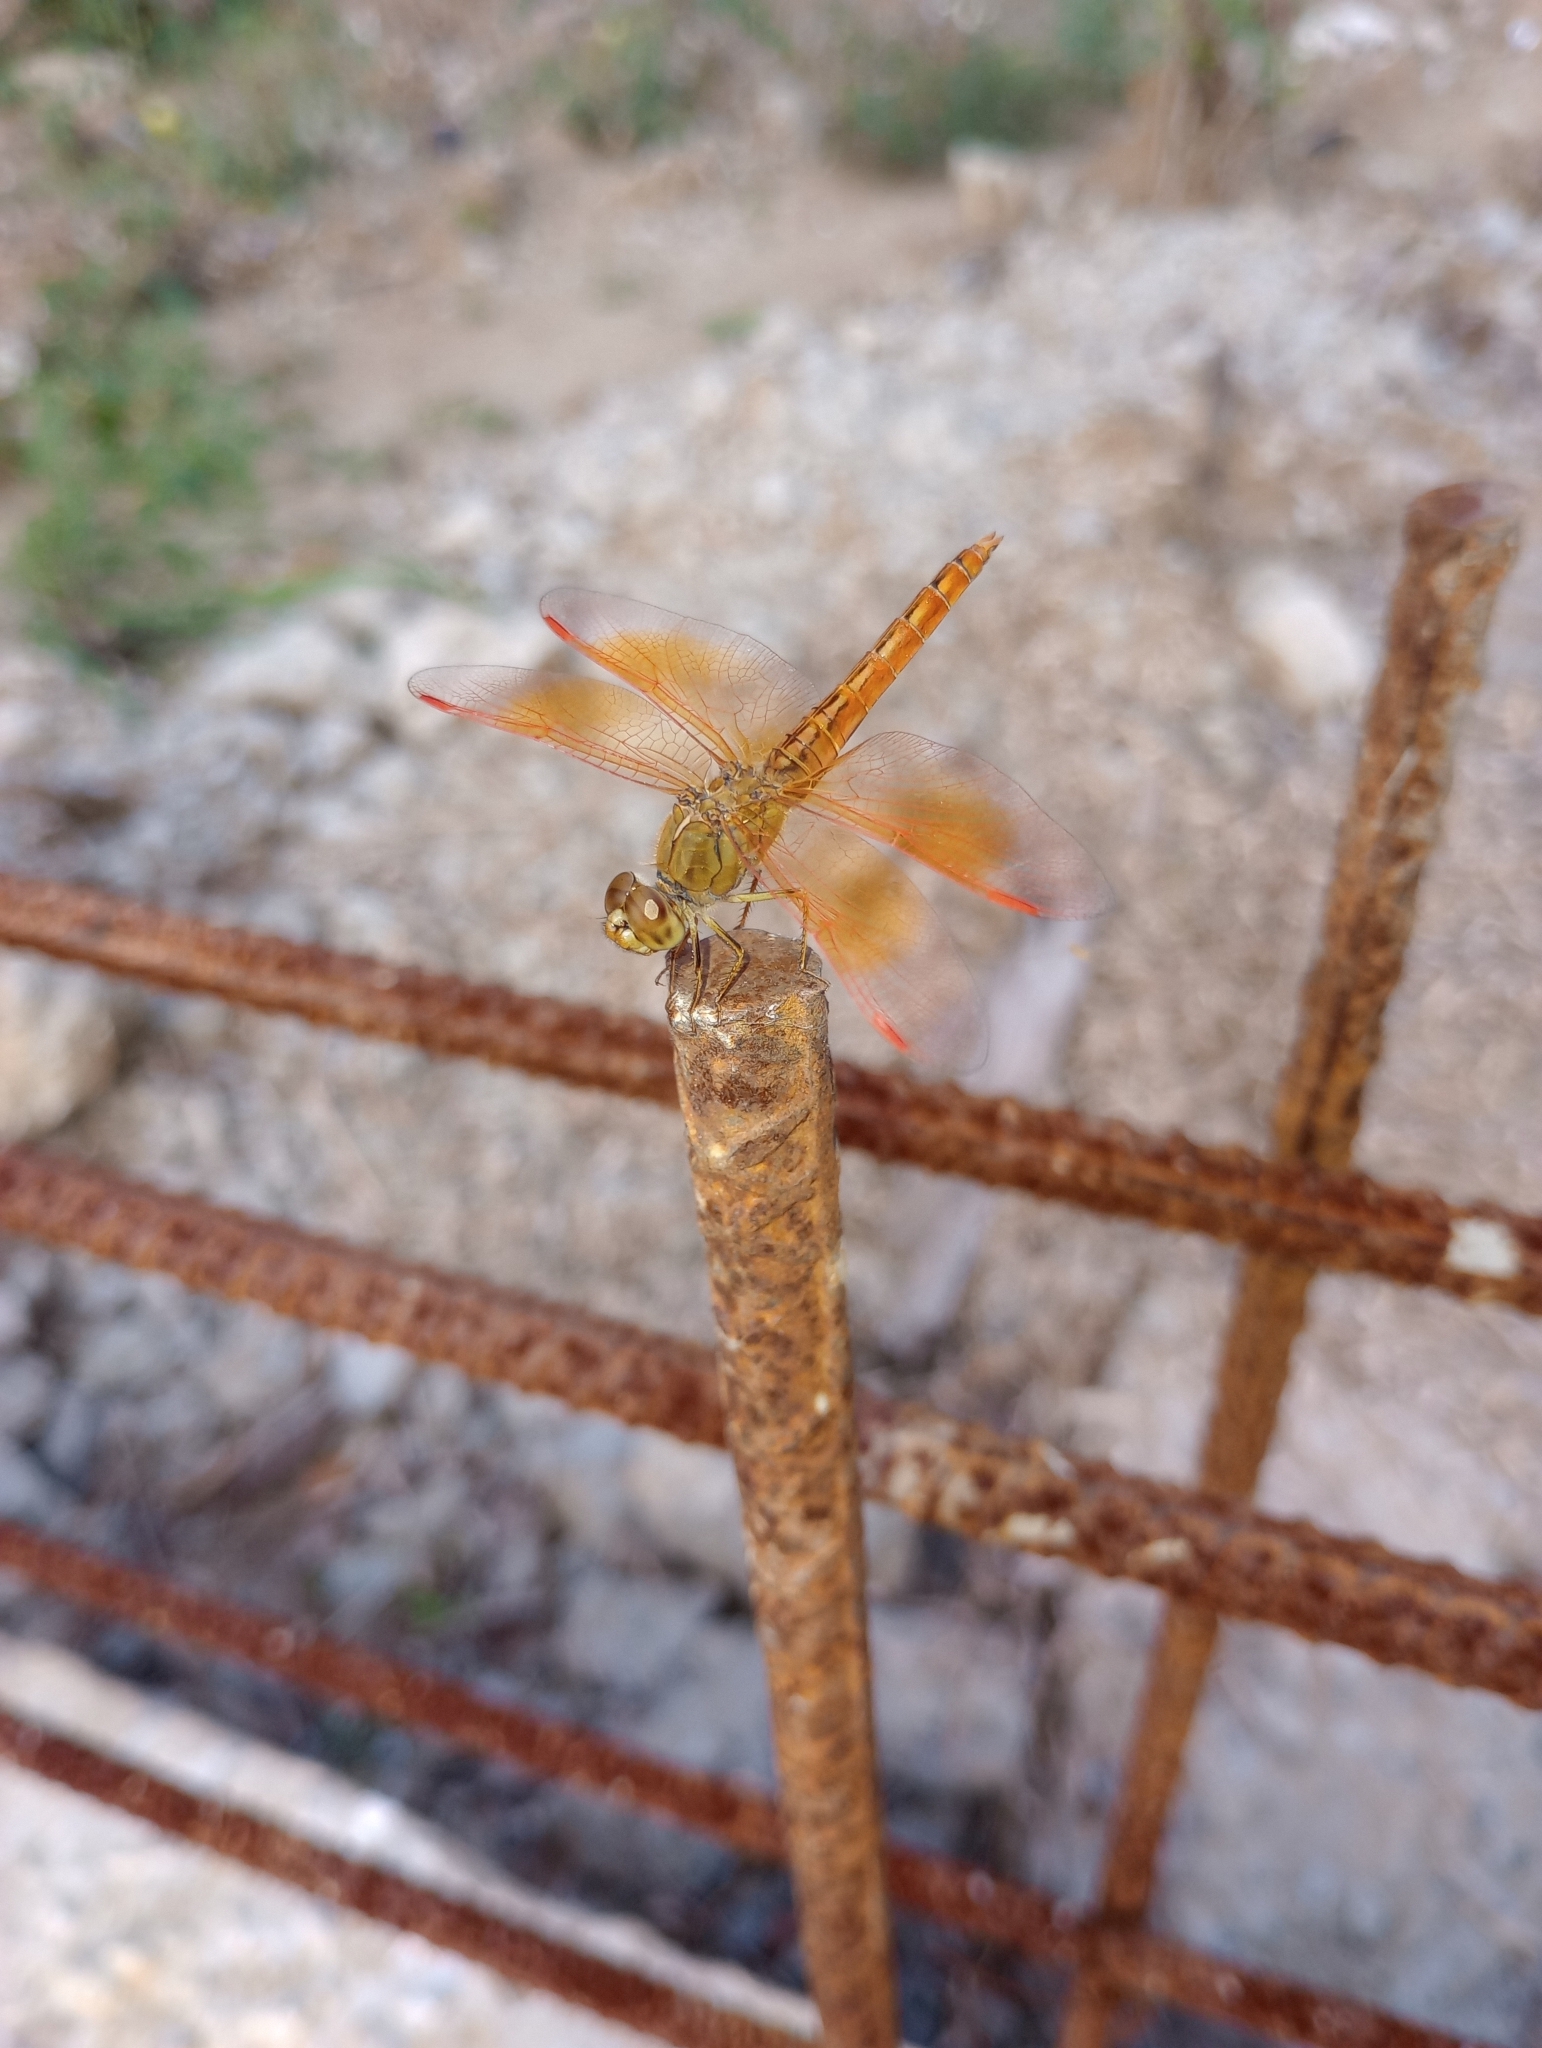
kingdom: Animalia
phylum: Arthropoda
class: Insecta
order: Odonata
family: Libellulidae
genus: Brachythemis
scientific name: Brachythemis contaminata
